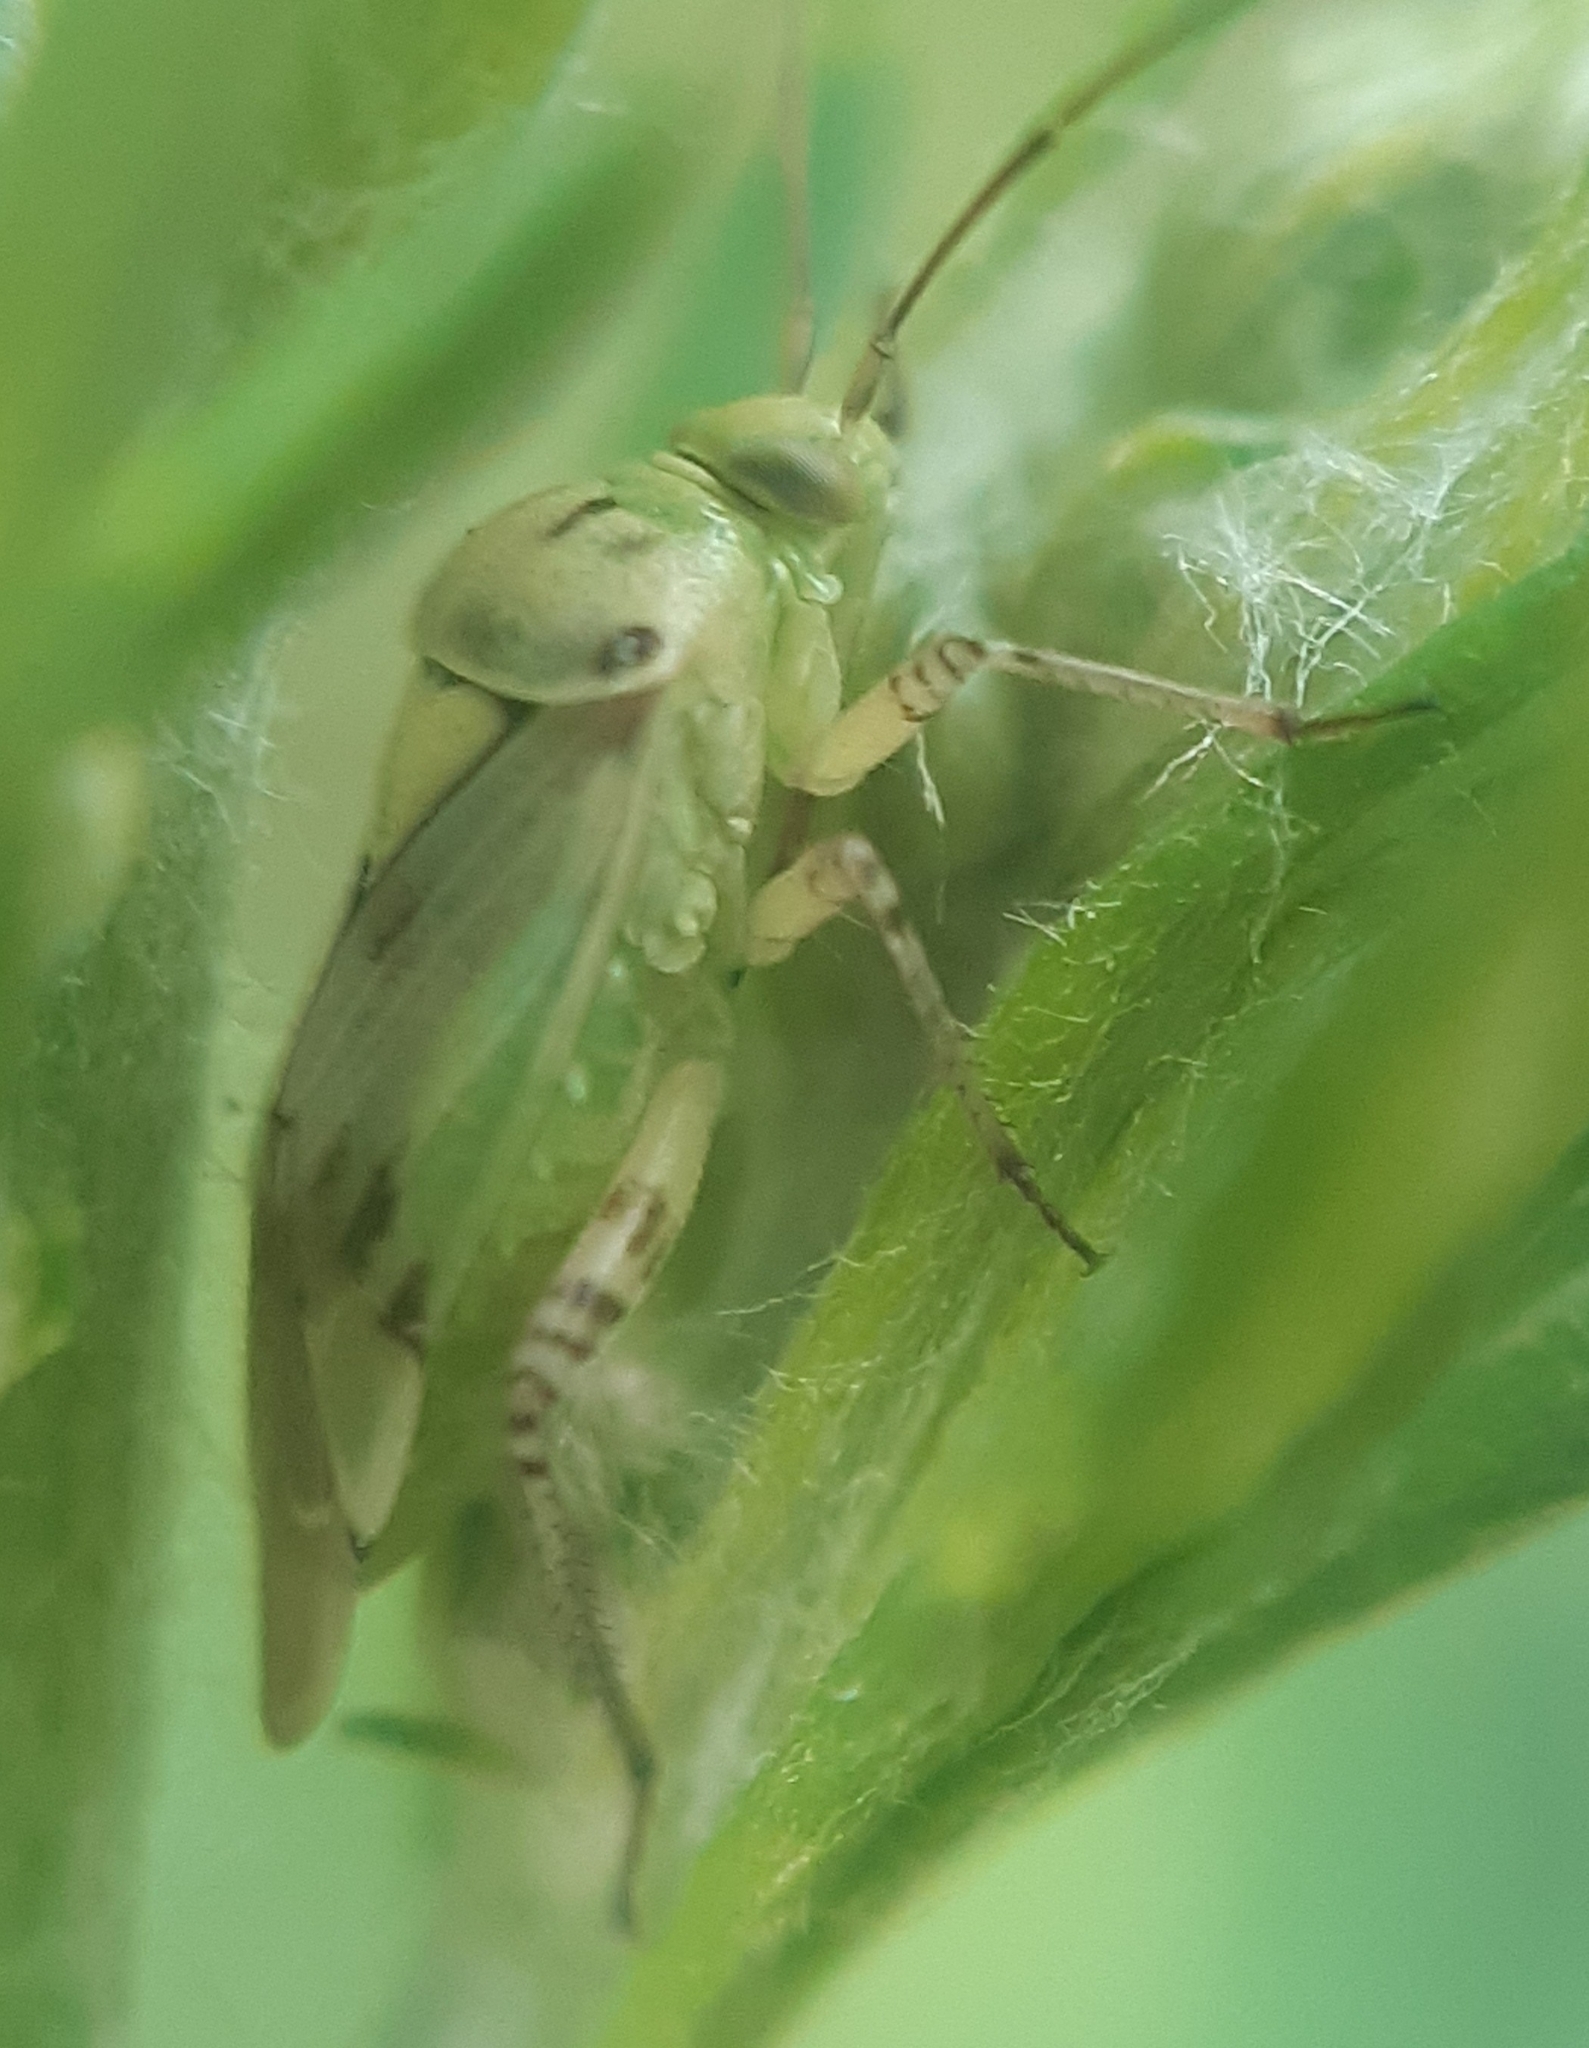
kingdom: Animalia
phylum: Arthropoda
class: Insecta
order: Hemiptera
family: Miridae
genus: Lygus
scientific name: Lygus gemellatus
